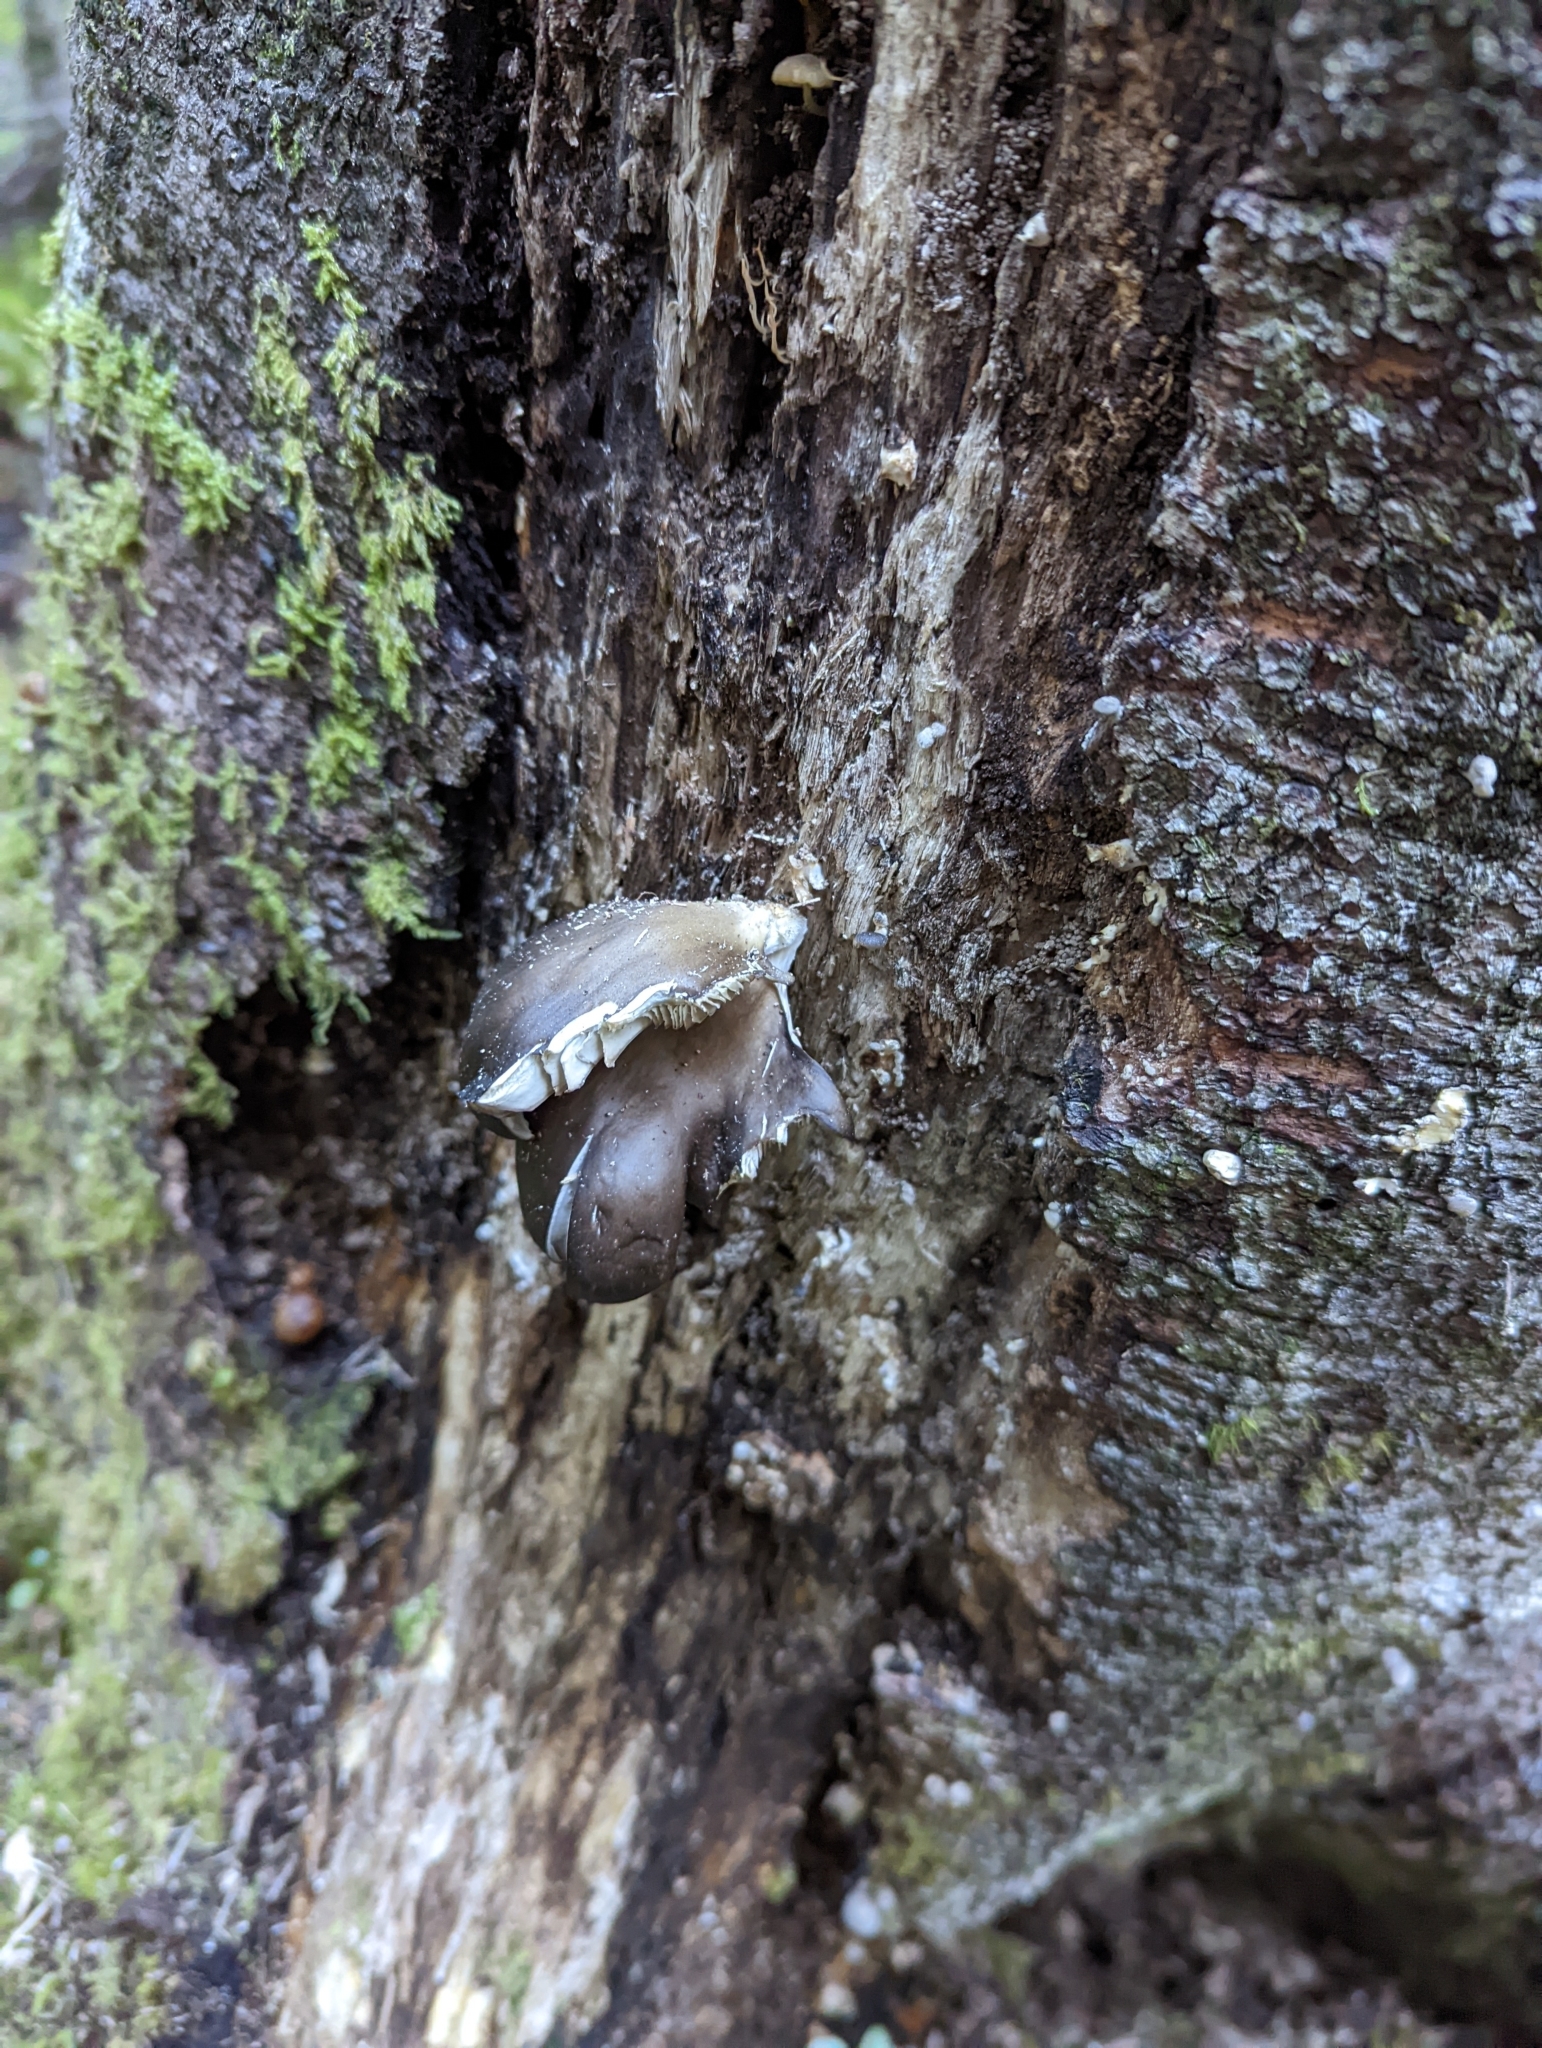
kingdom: Fungi
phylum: Basidiomycota
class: Agaricomycetes
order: Agaricales
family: Pleurotaceae
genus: Pleurotus
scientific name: Pleurotus purpureo-olivaceus
